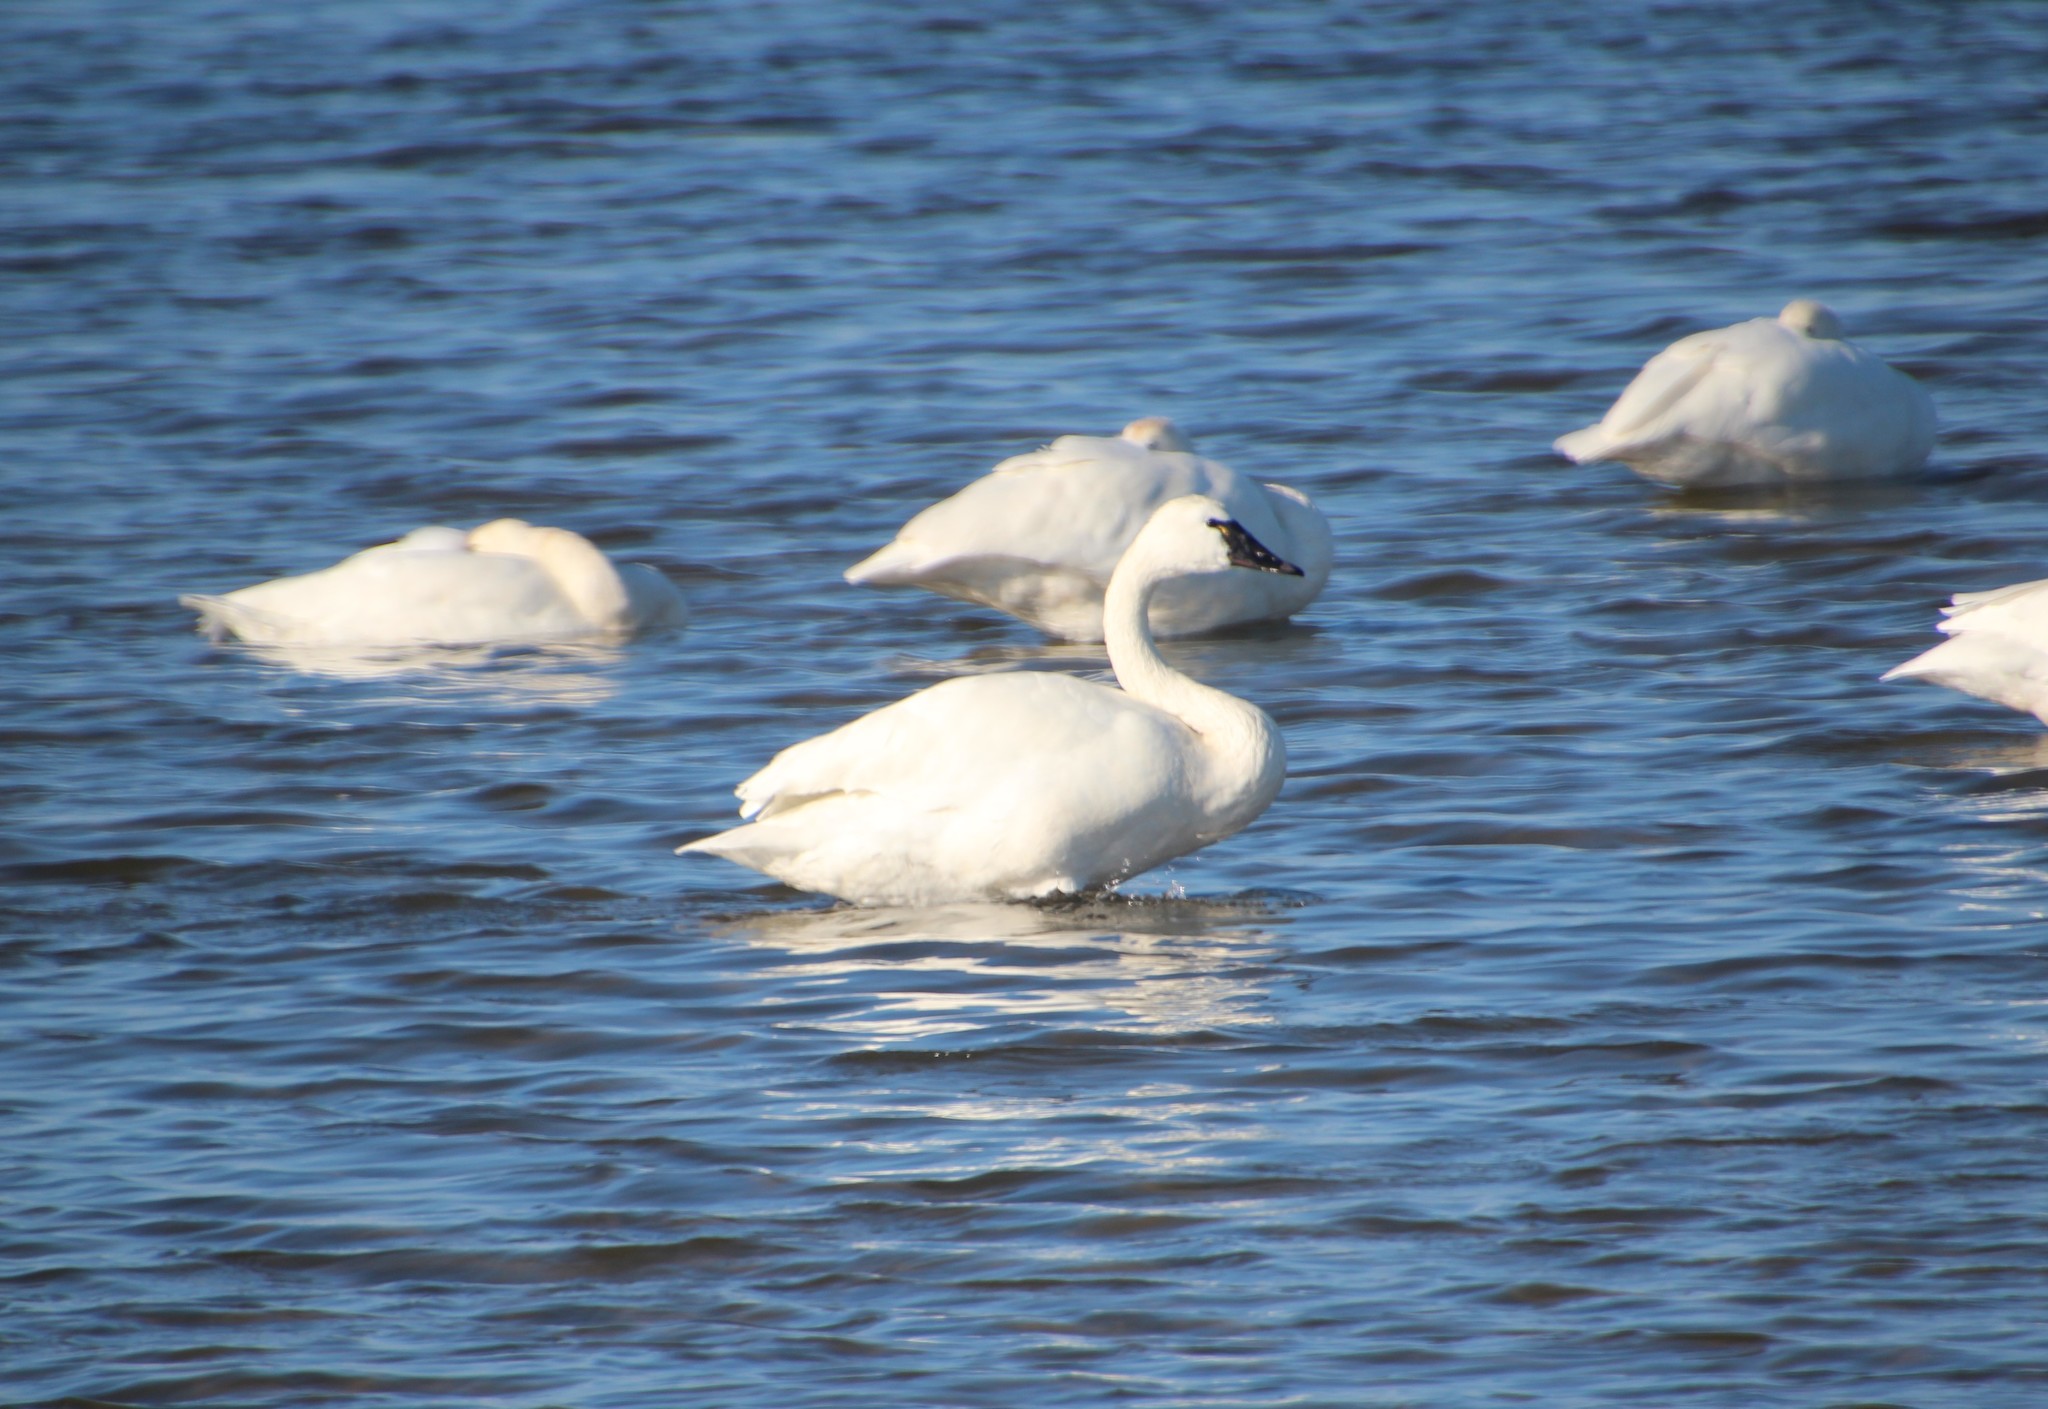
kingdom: Animalia
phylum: Chordata
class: Aves
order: Anseriformes
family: Anatidae
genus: Cygnus
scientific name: Cygnus columbianus
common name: Tundra swan
